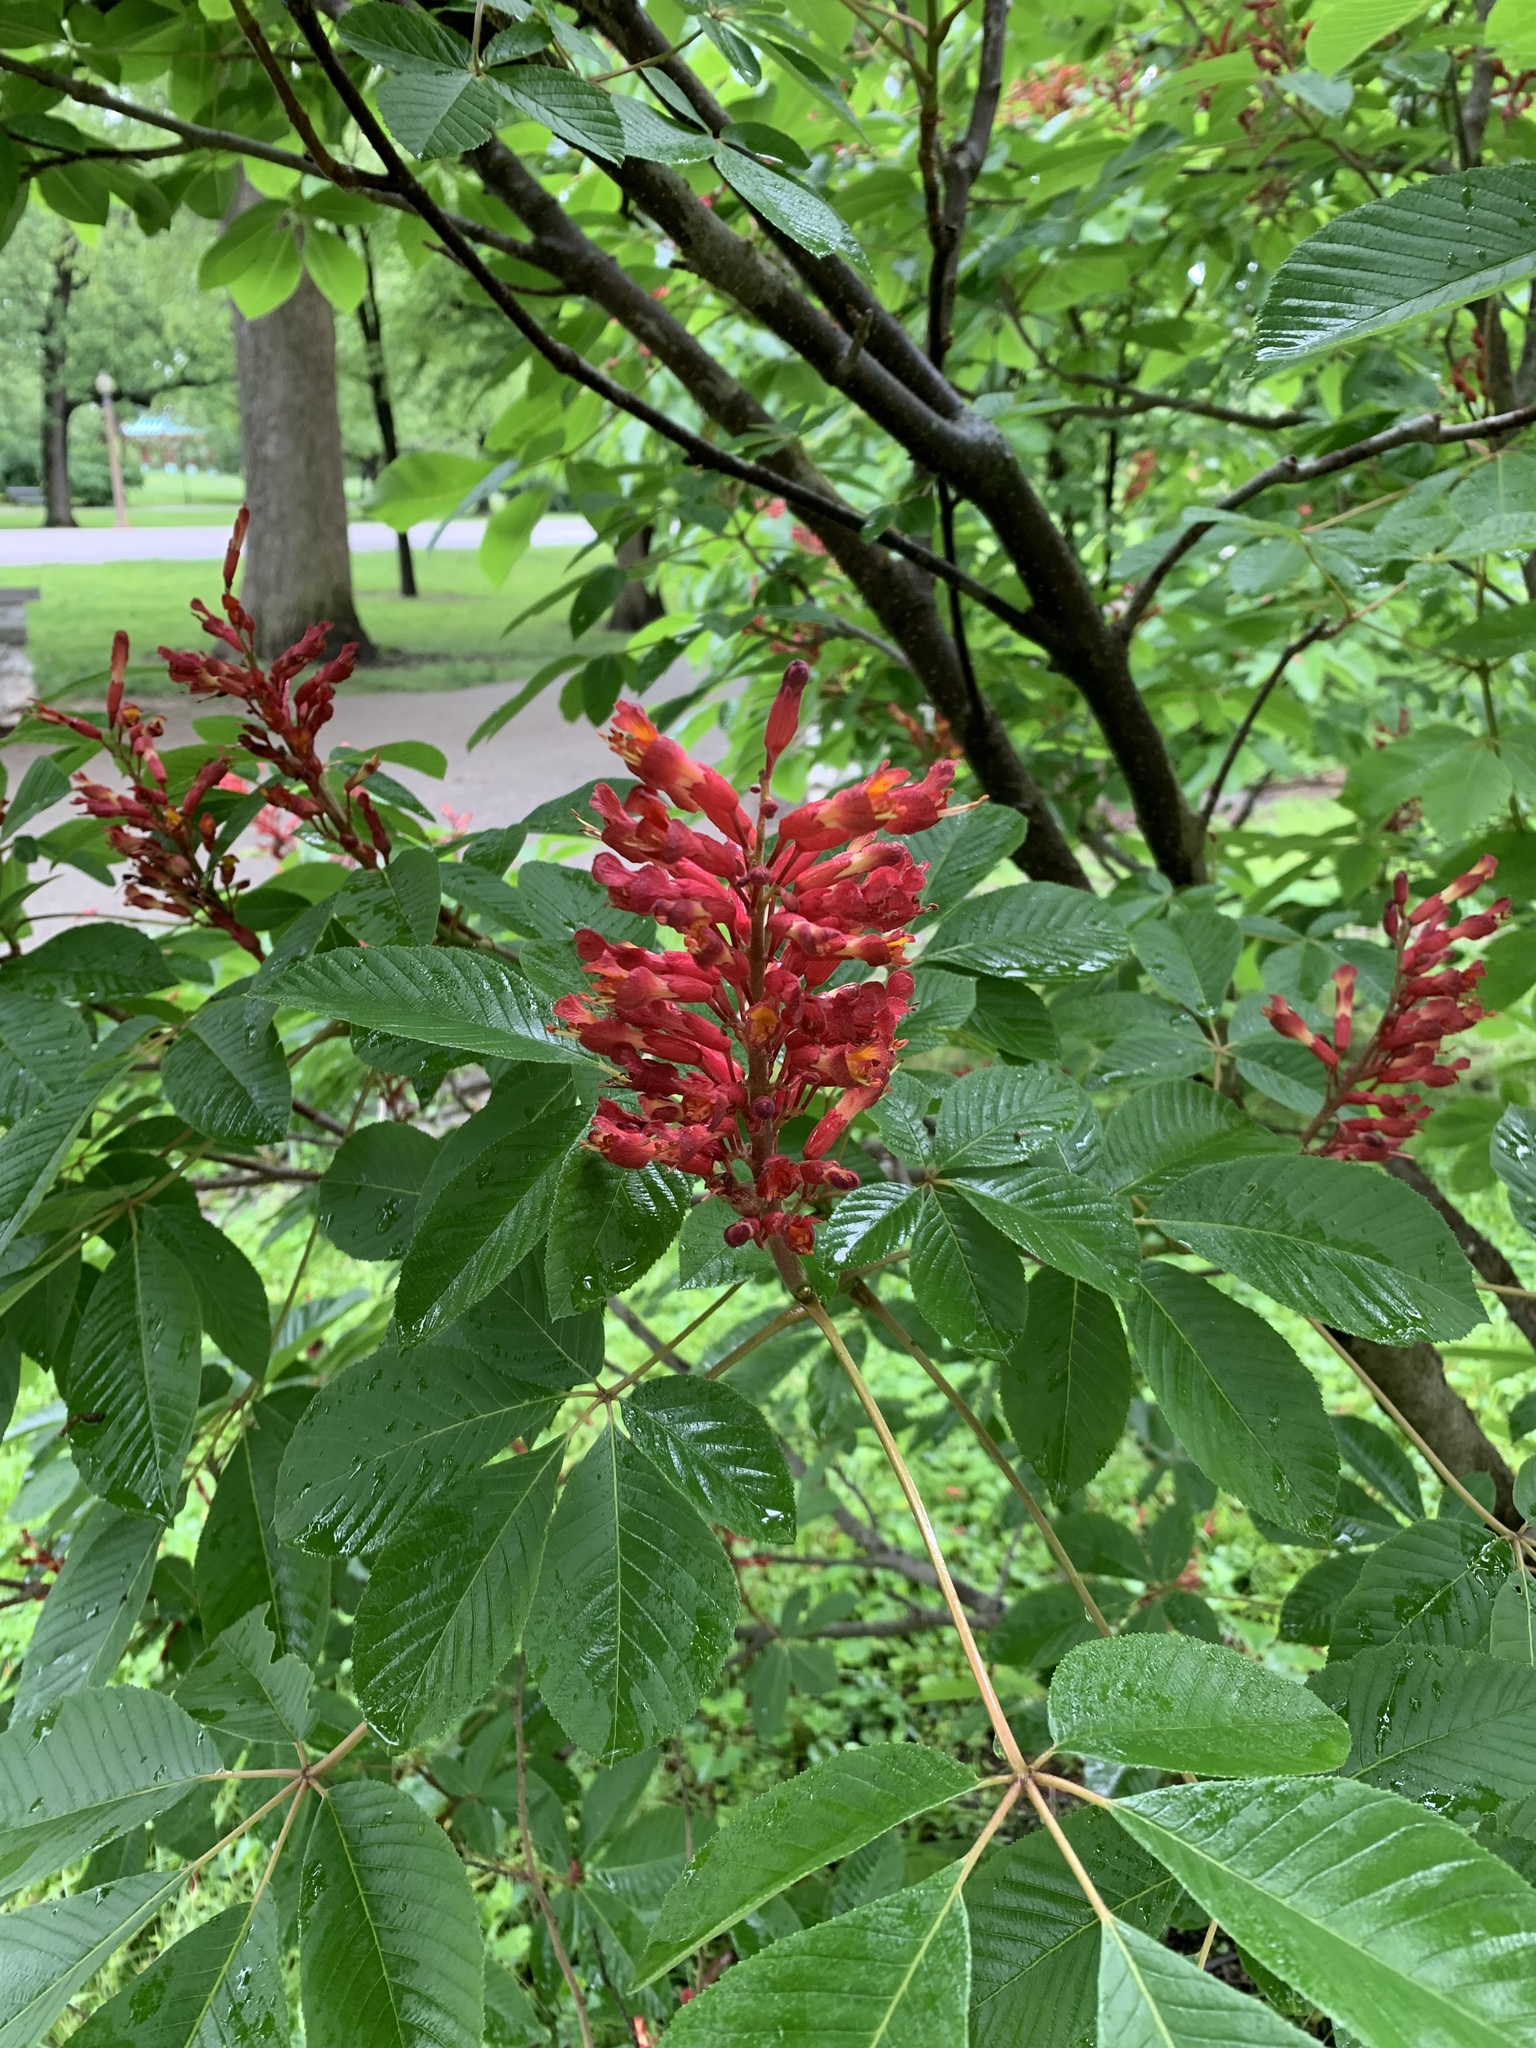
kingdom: Plantae
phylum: Tracheophyta
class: Magnoliopsida
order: Sapindales
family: Sapindaceae
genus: Aesculus
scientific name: Aesculus pavia
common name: Red buckeye
